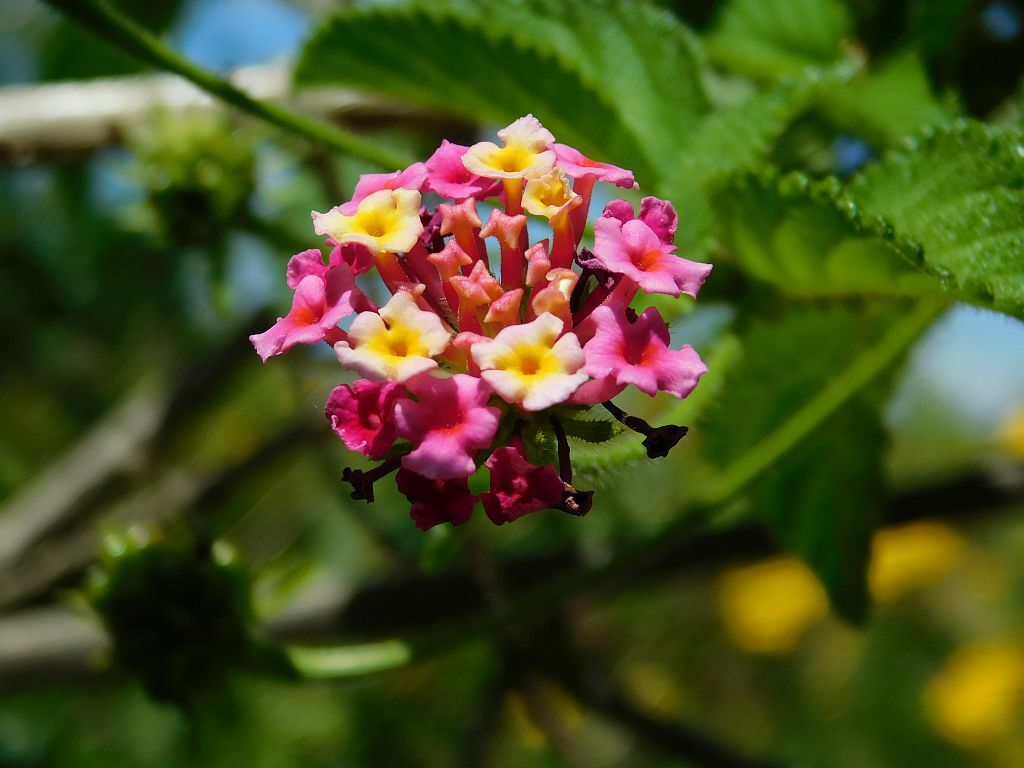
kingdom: Plantae
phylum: Tracheophyta
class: Magnoliopsida
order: Lamiales
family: Verbenaceae
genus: Lantana
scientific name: Lantana camara
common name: Lantana
